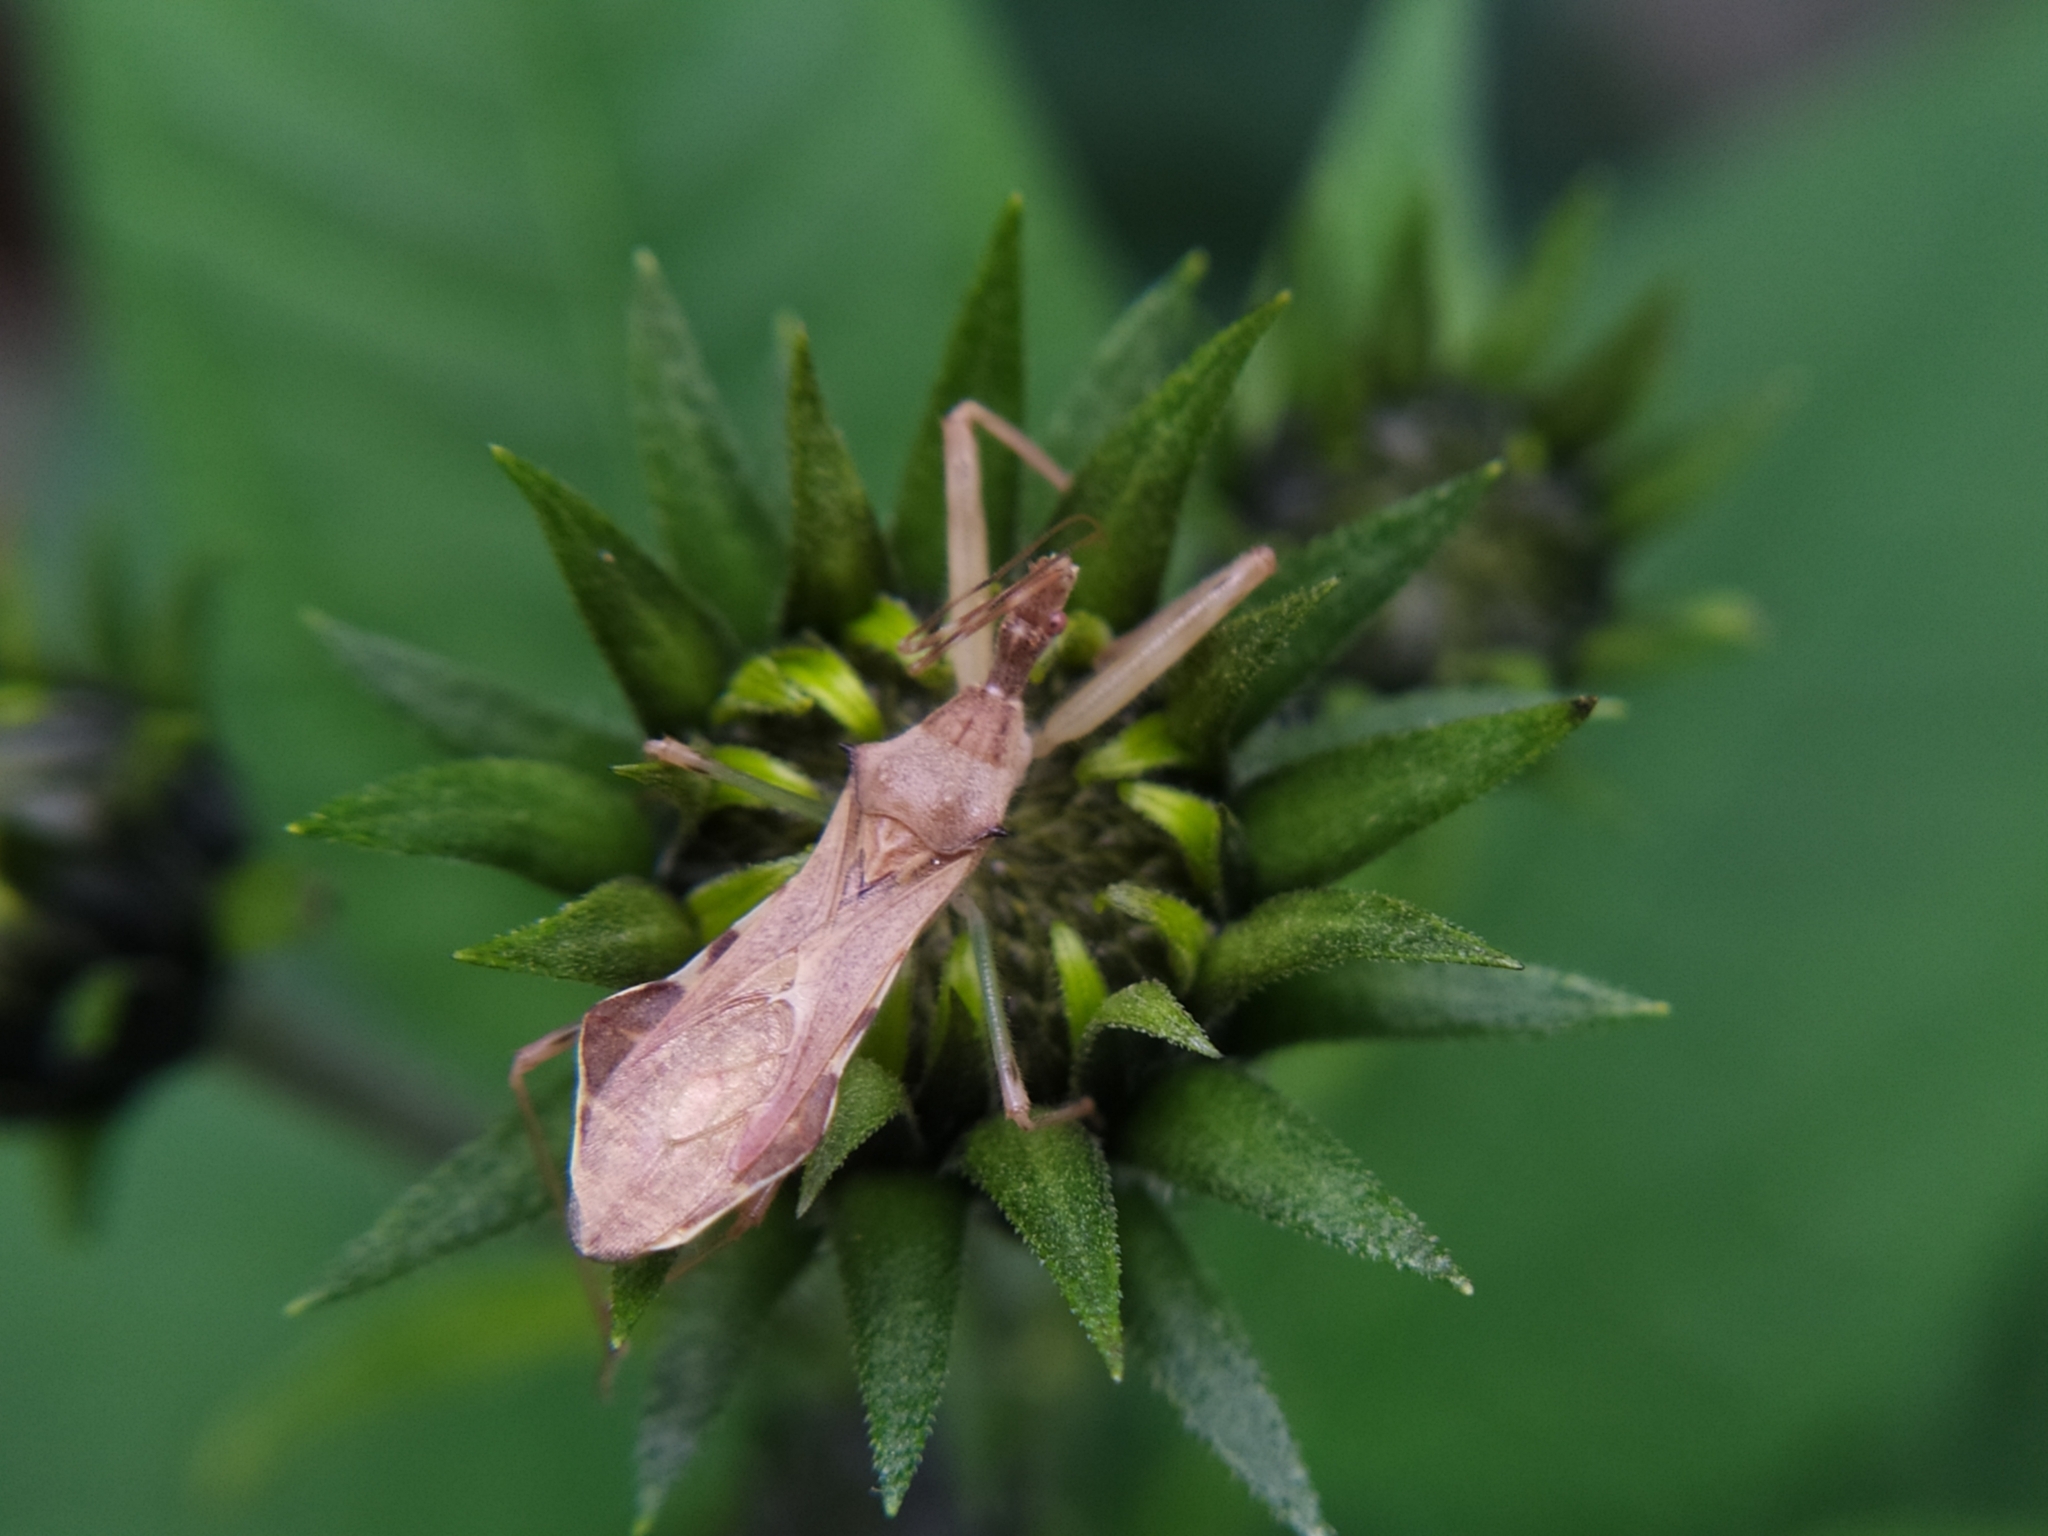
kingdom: Animalia
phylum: Arthropoda
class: Insecta
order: Hemiptera
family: Reduviidae
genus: Nagusta
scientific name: Nagusta goedelii
